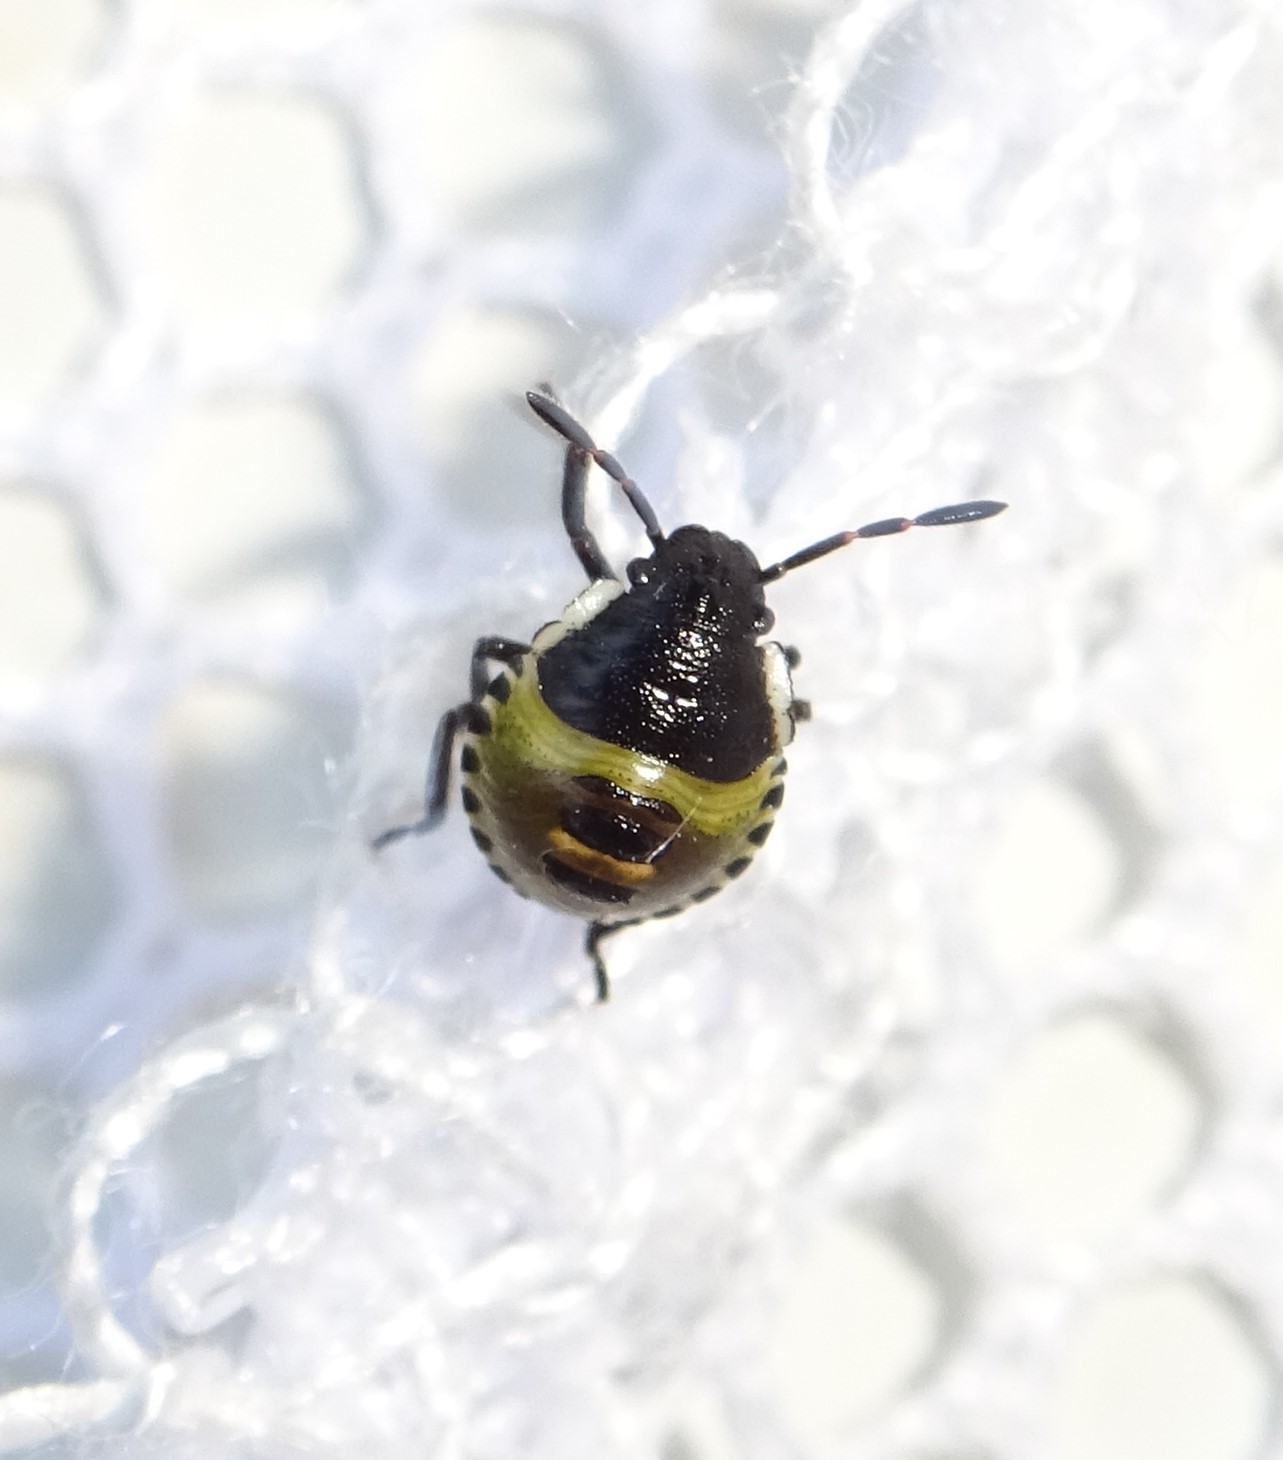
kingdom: Animalia
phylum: Arthropoda
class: Insecta
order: Hemiptera
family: Pentatomidae
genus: Palomena
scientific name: Palomena prasina
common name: Green shieldbug
